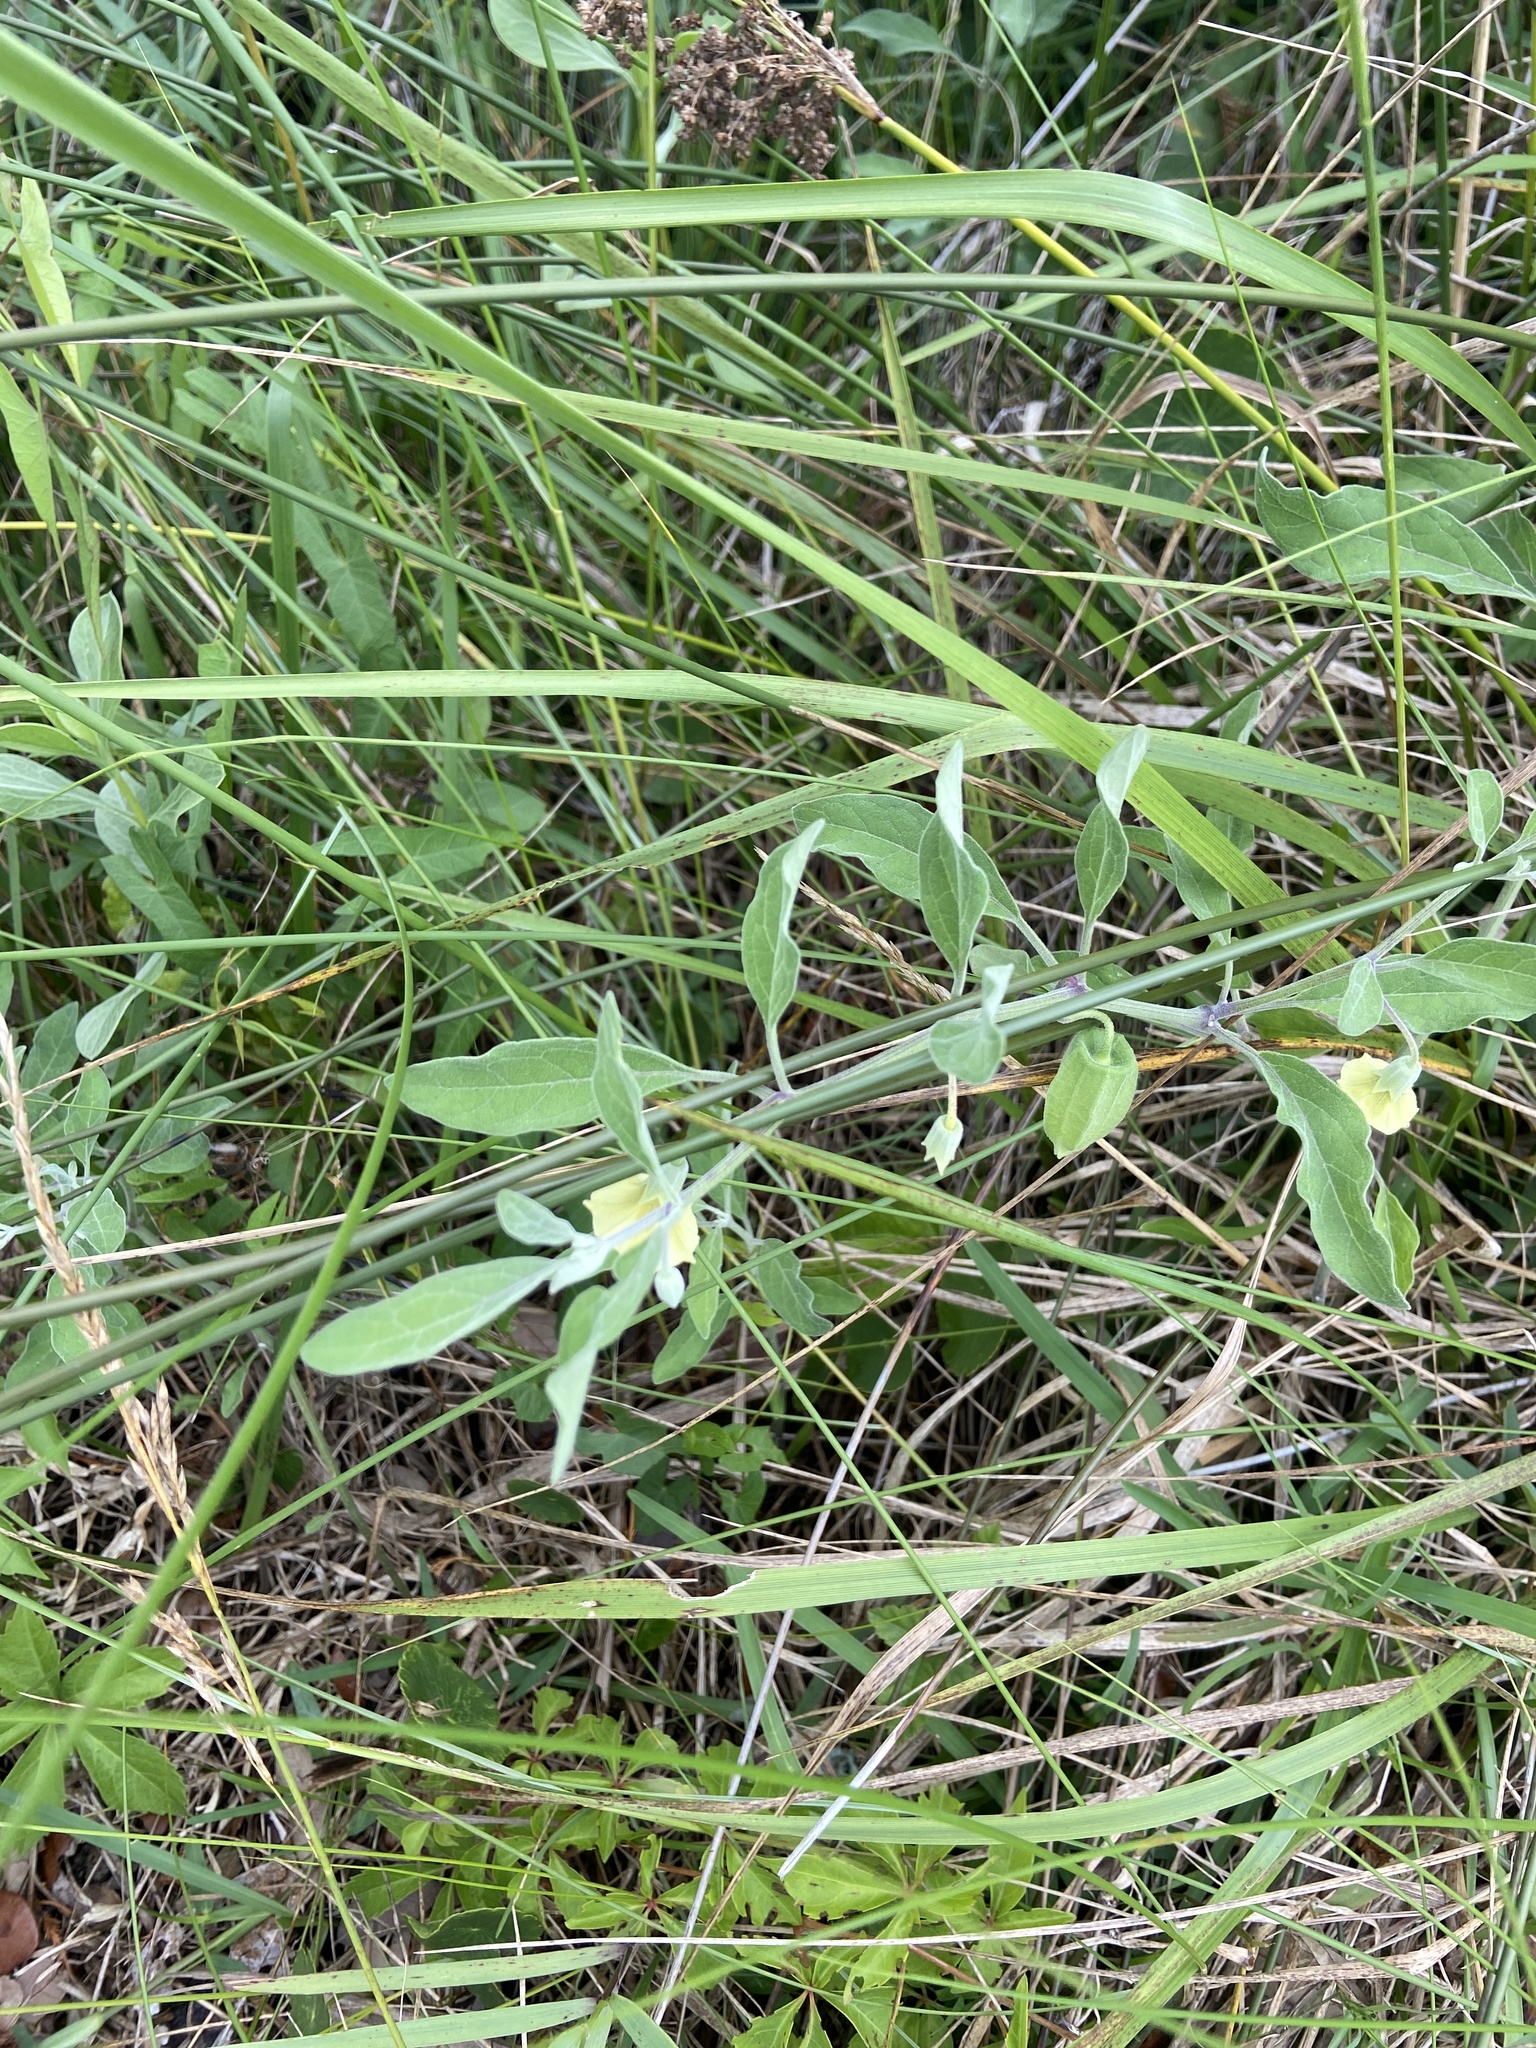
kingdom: Plantae
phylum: Tracheophyta
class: Magnoliopsida
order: Solanales
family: Solanaceae
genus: Physalis
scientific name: Physalis walteri
